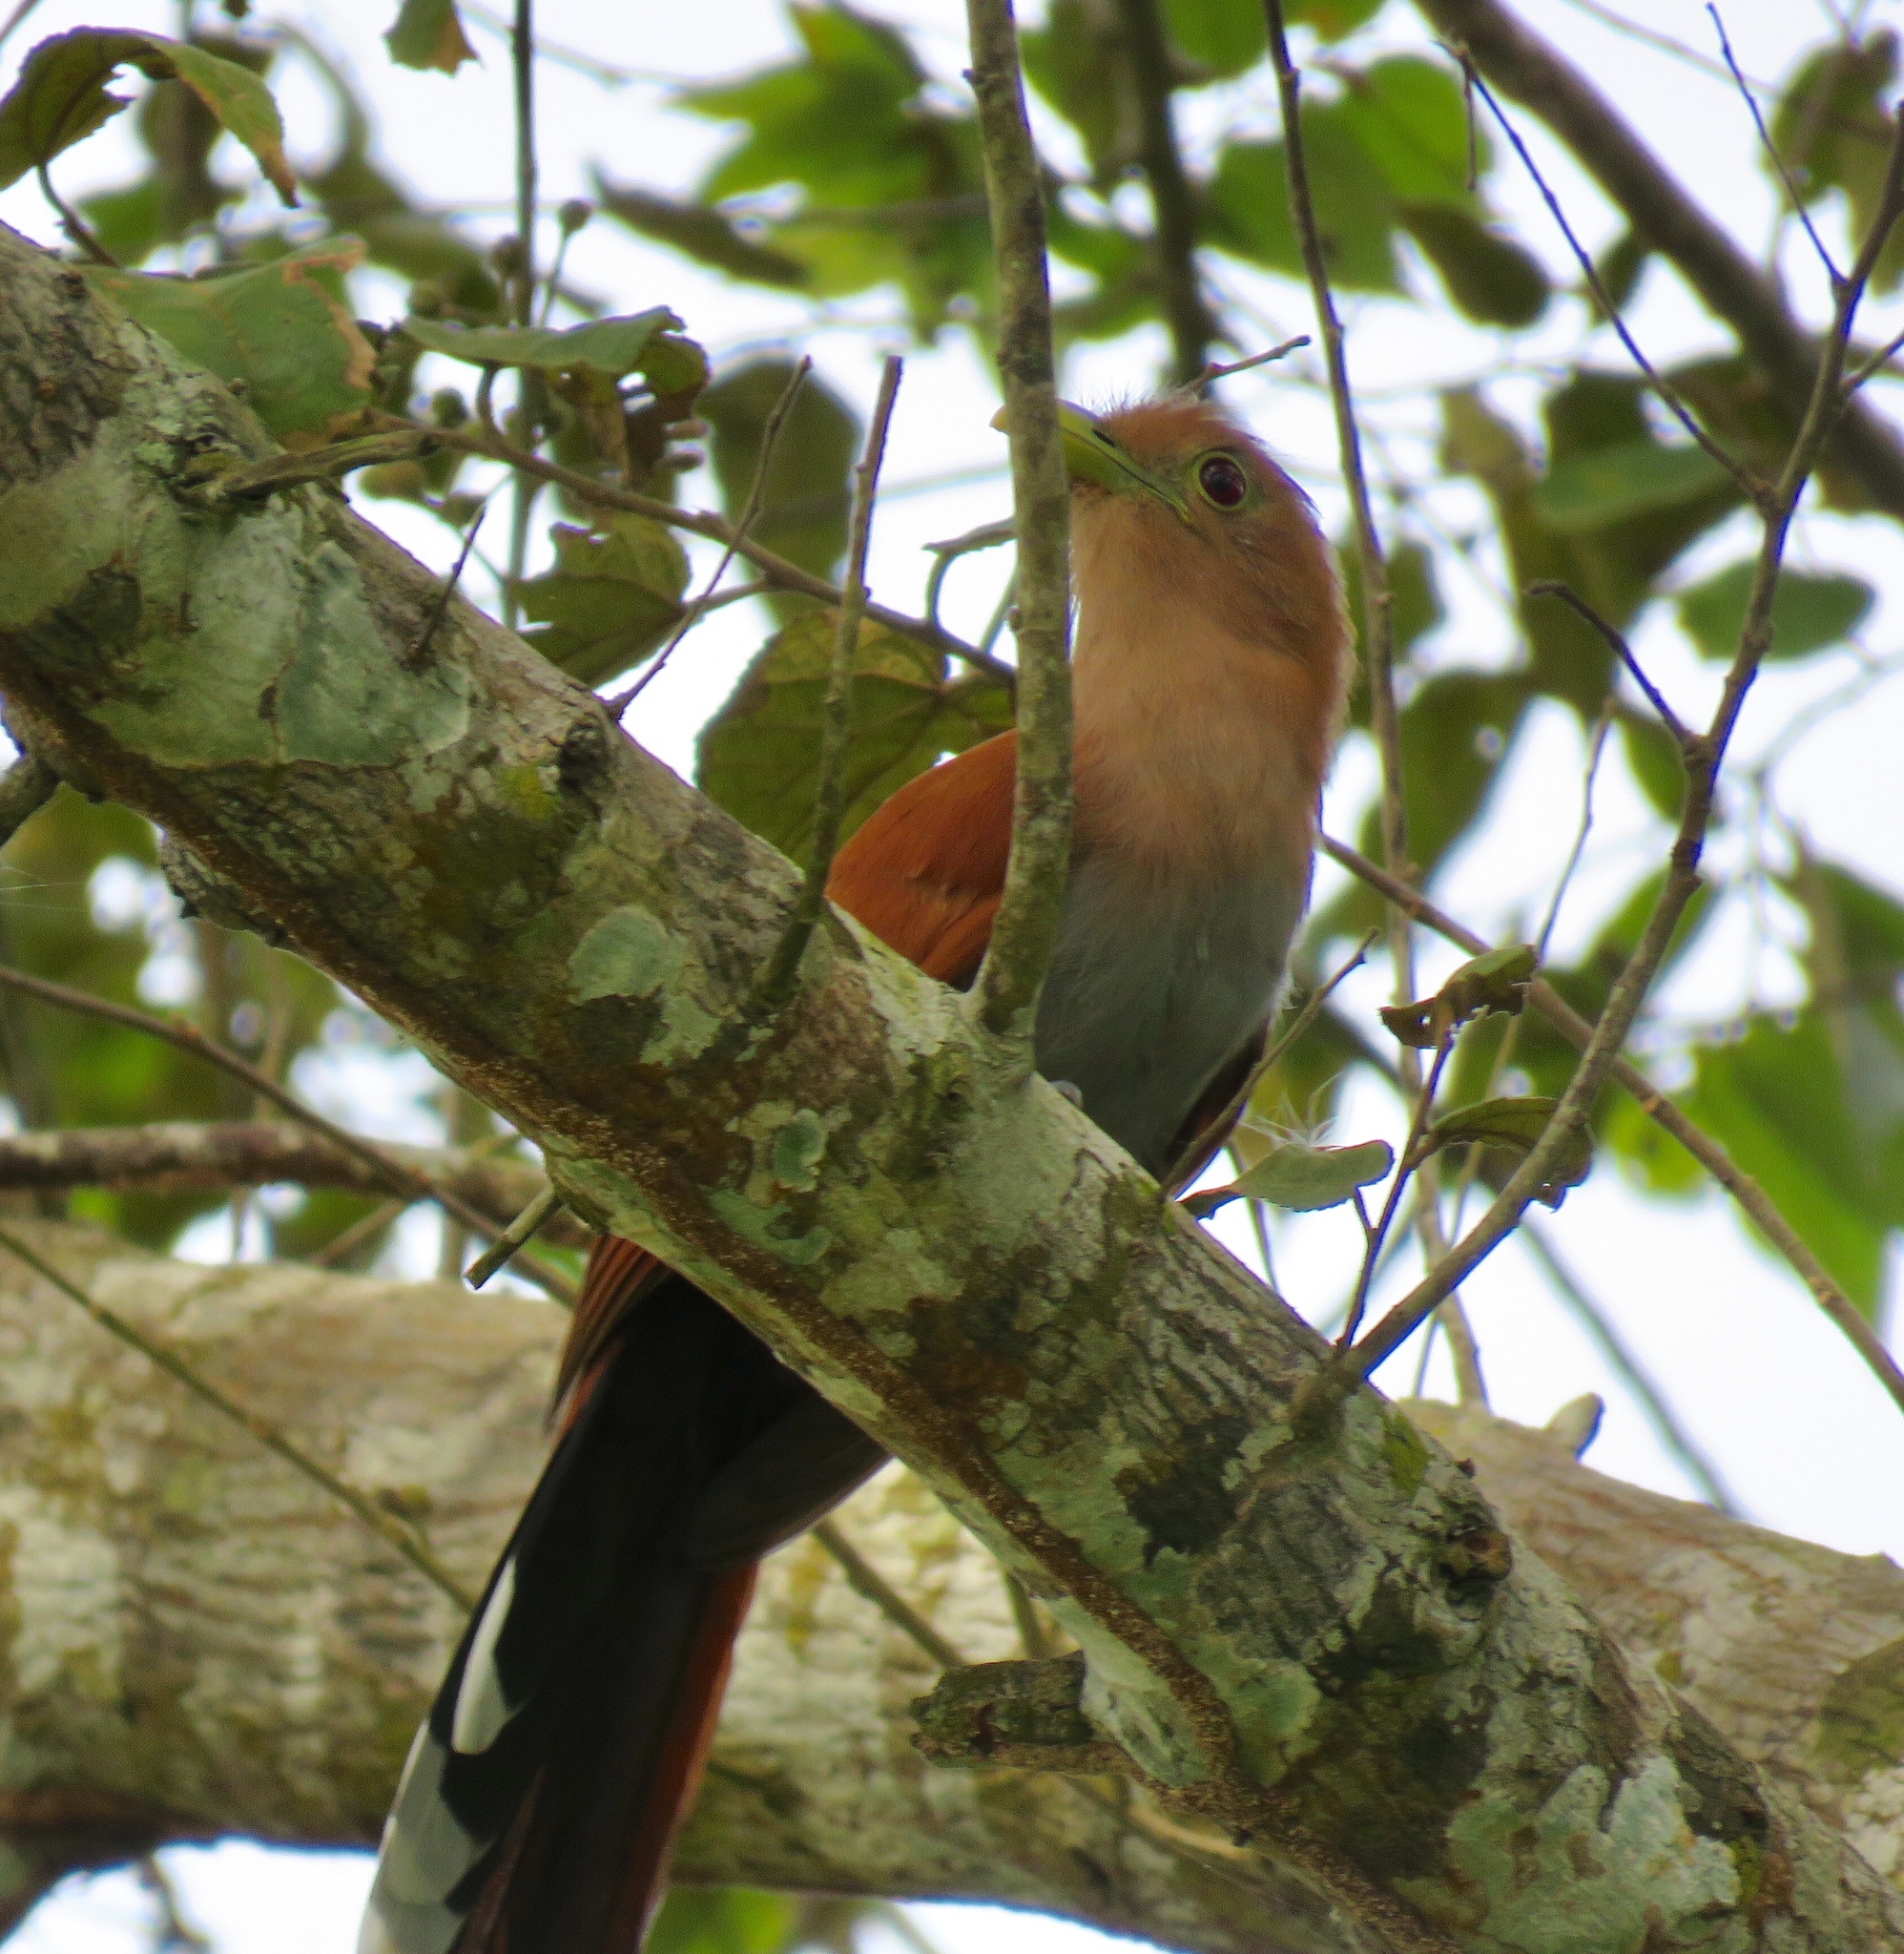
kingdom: Animalia
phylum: Chordata
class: Aves
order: Cuculiformes
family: Cuculidae
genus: Piaya
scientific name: Piaya cayana
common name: Squirrel cuckoo
